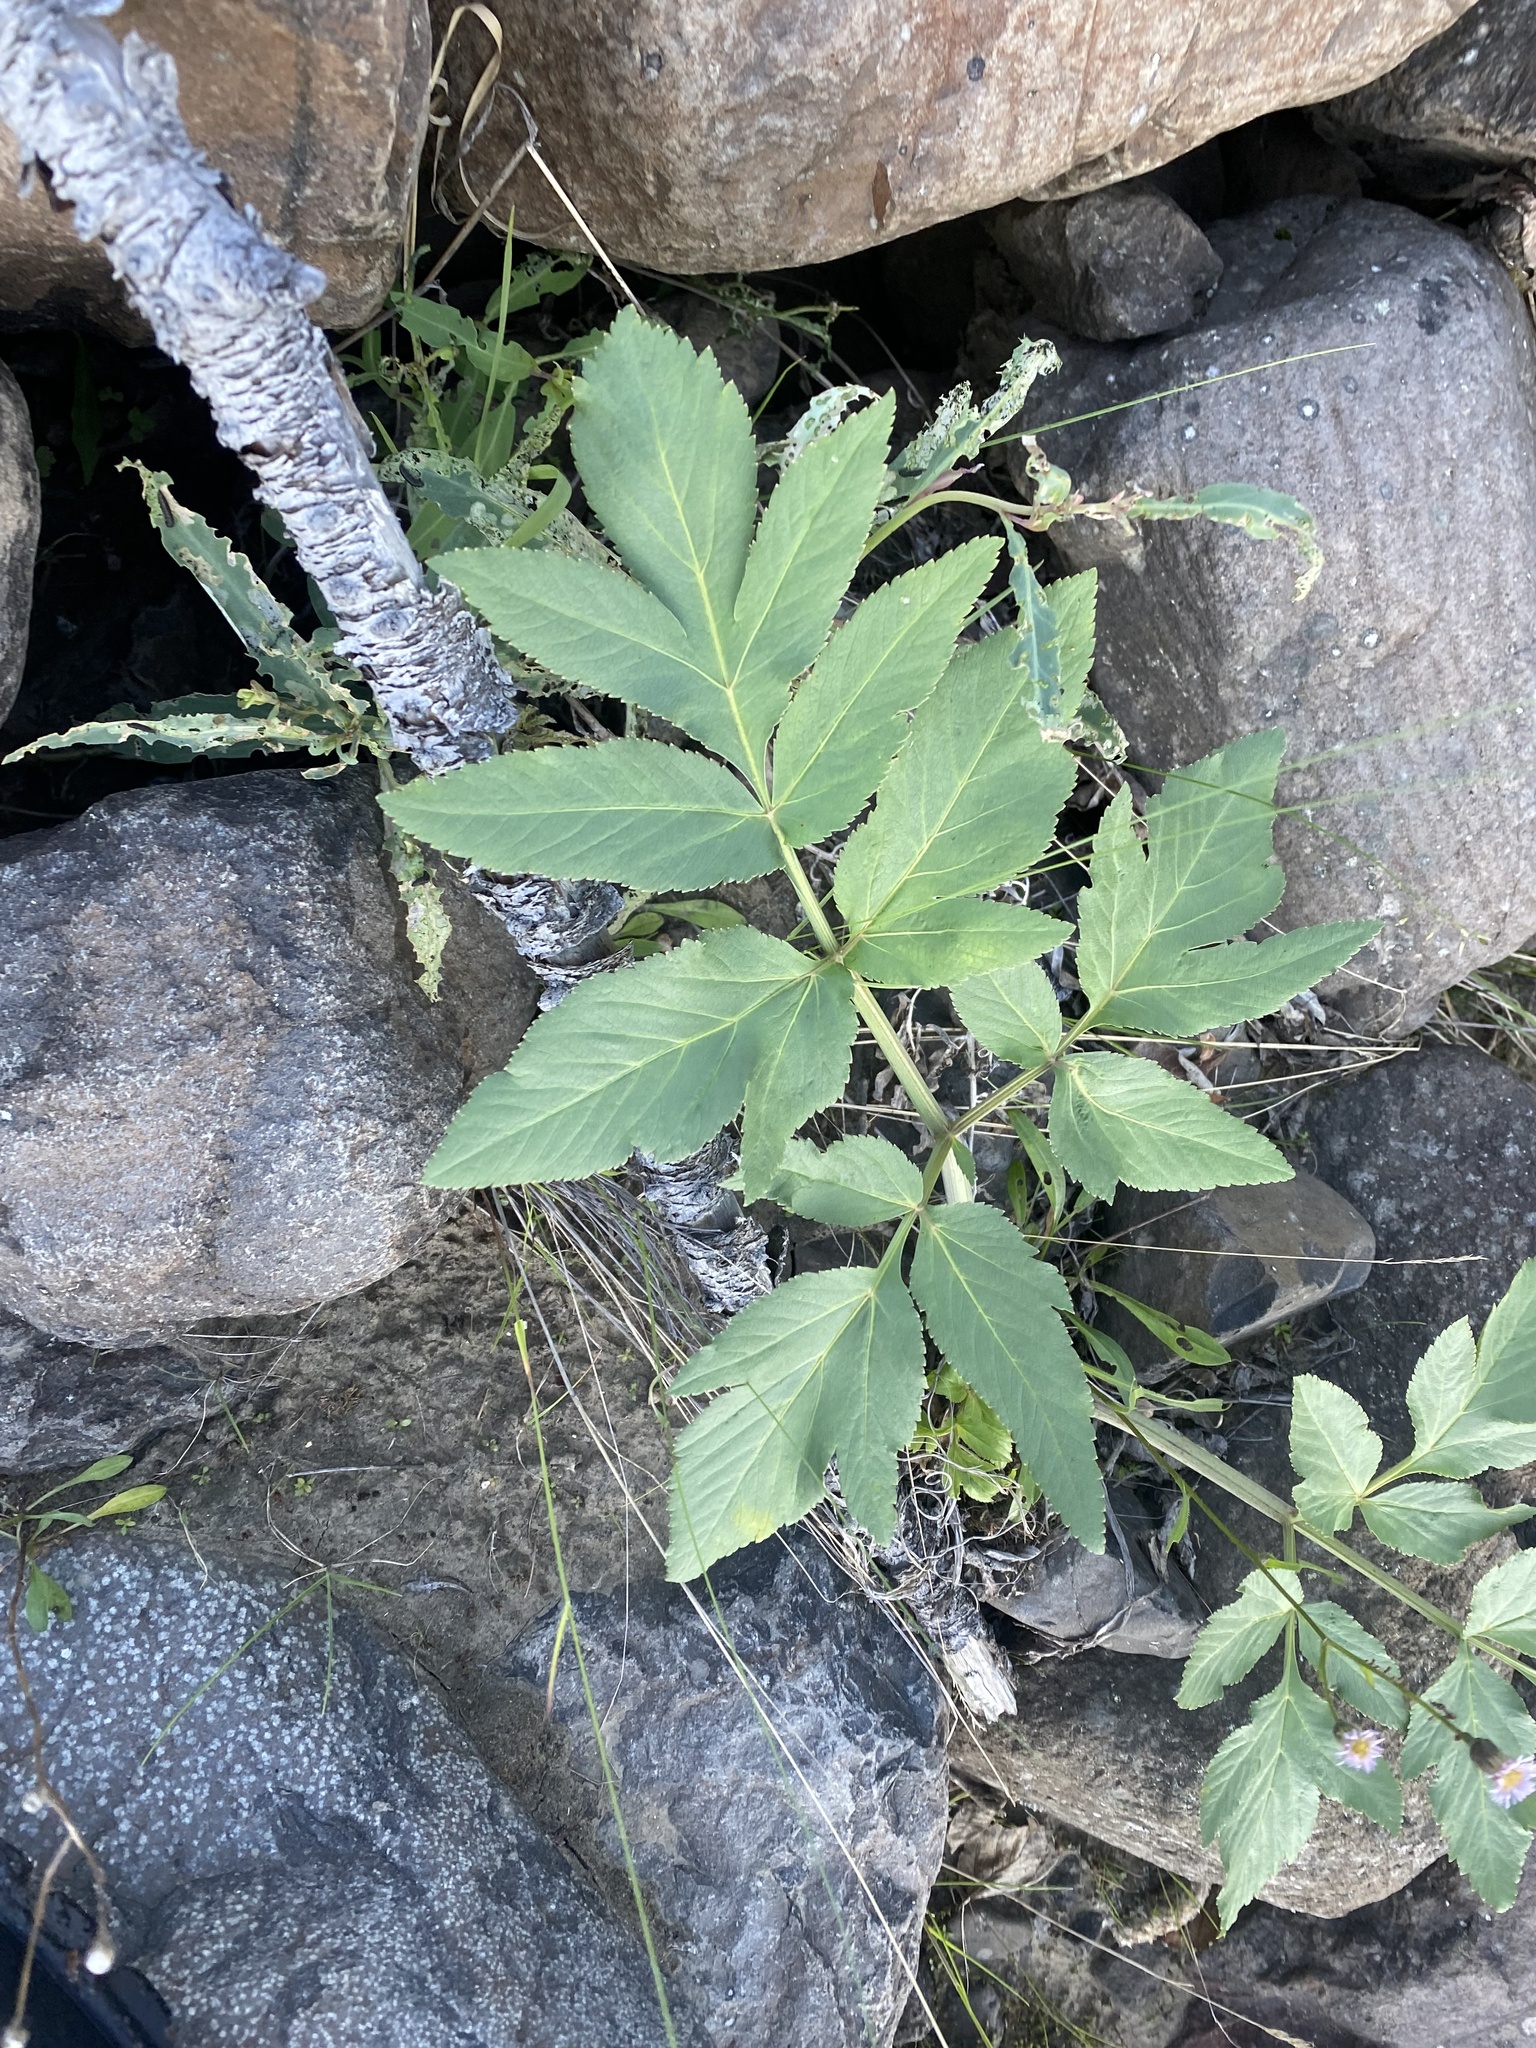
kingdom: Plantae
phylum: Tracheophyta
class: Magnoliopsida
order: Apiales
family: Apiaceae
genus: Angelica
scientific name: Angelica decurrens
